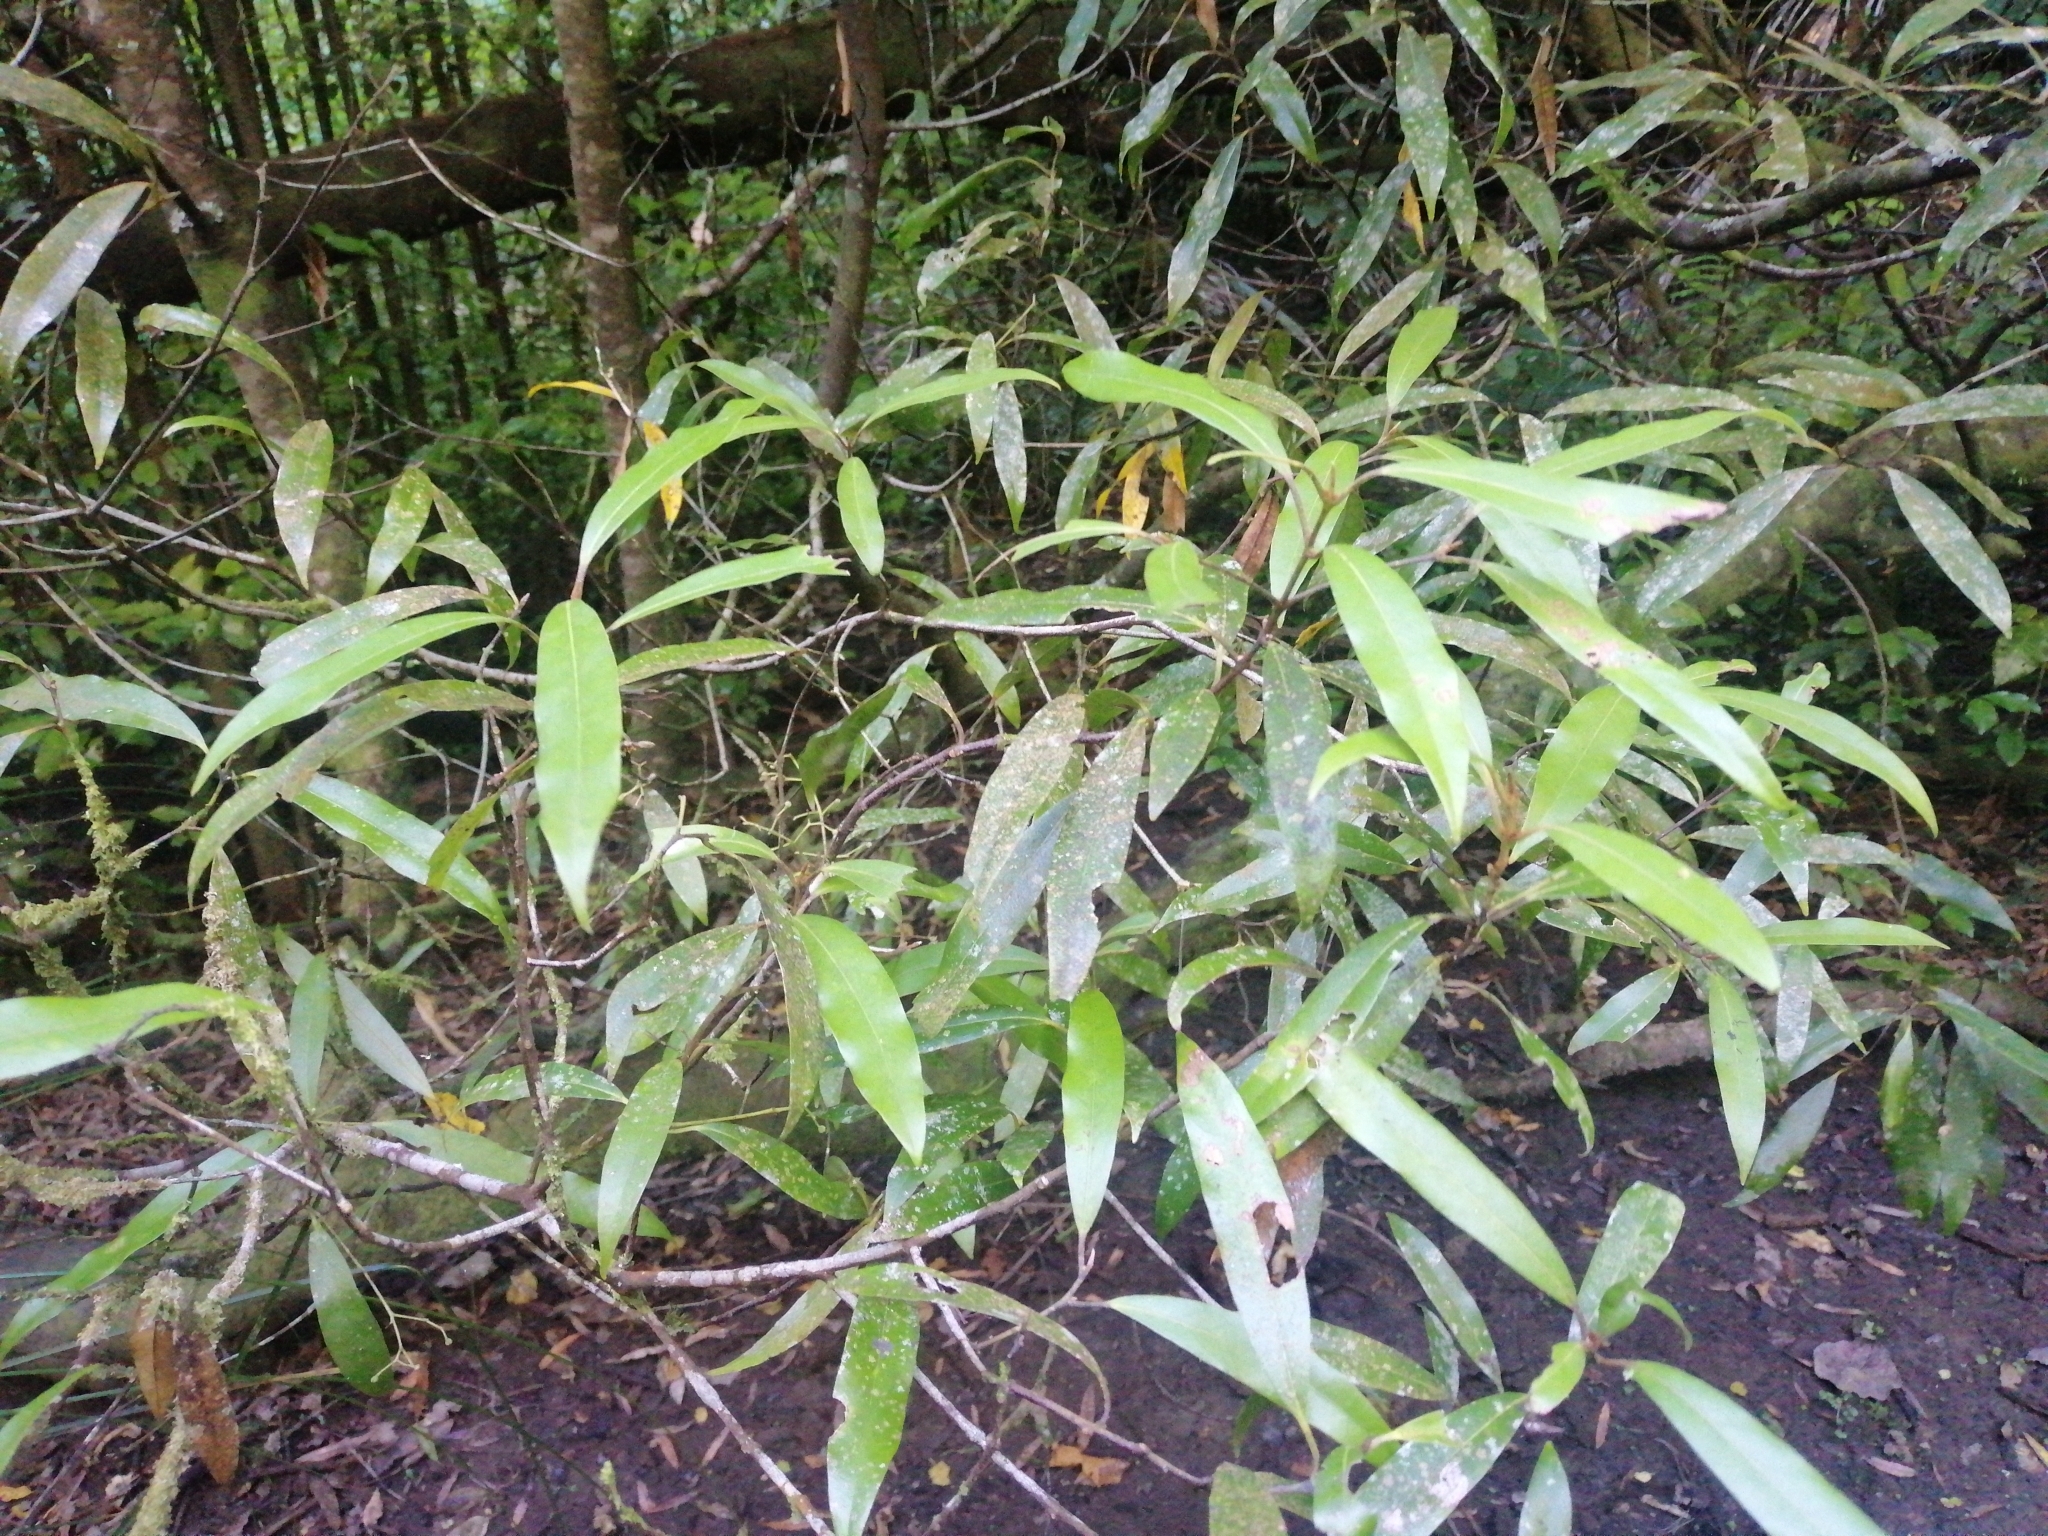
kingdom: Plantae
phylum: Tracheophyta
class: Magnoliopsida
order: Laurales
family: Lauraceae
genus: Beilschmiedia
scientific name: Beilschmiedia tawa
